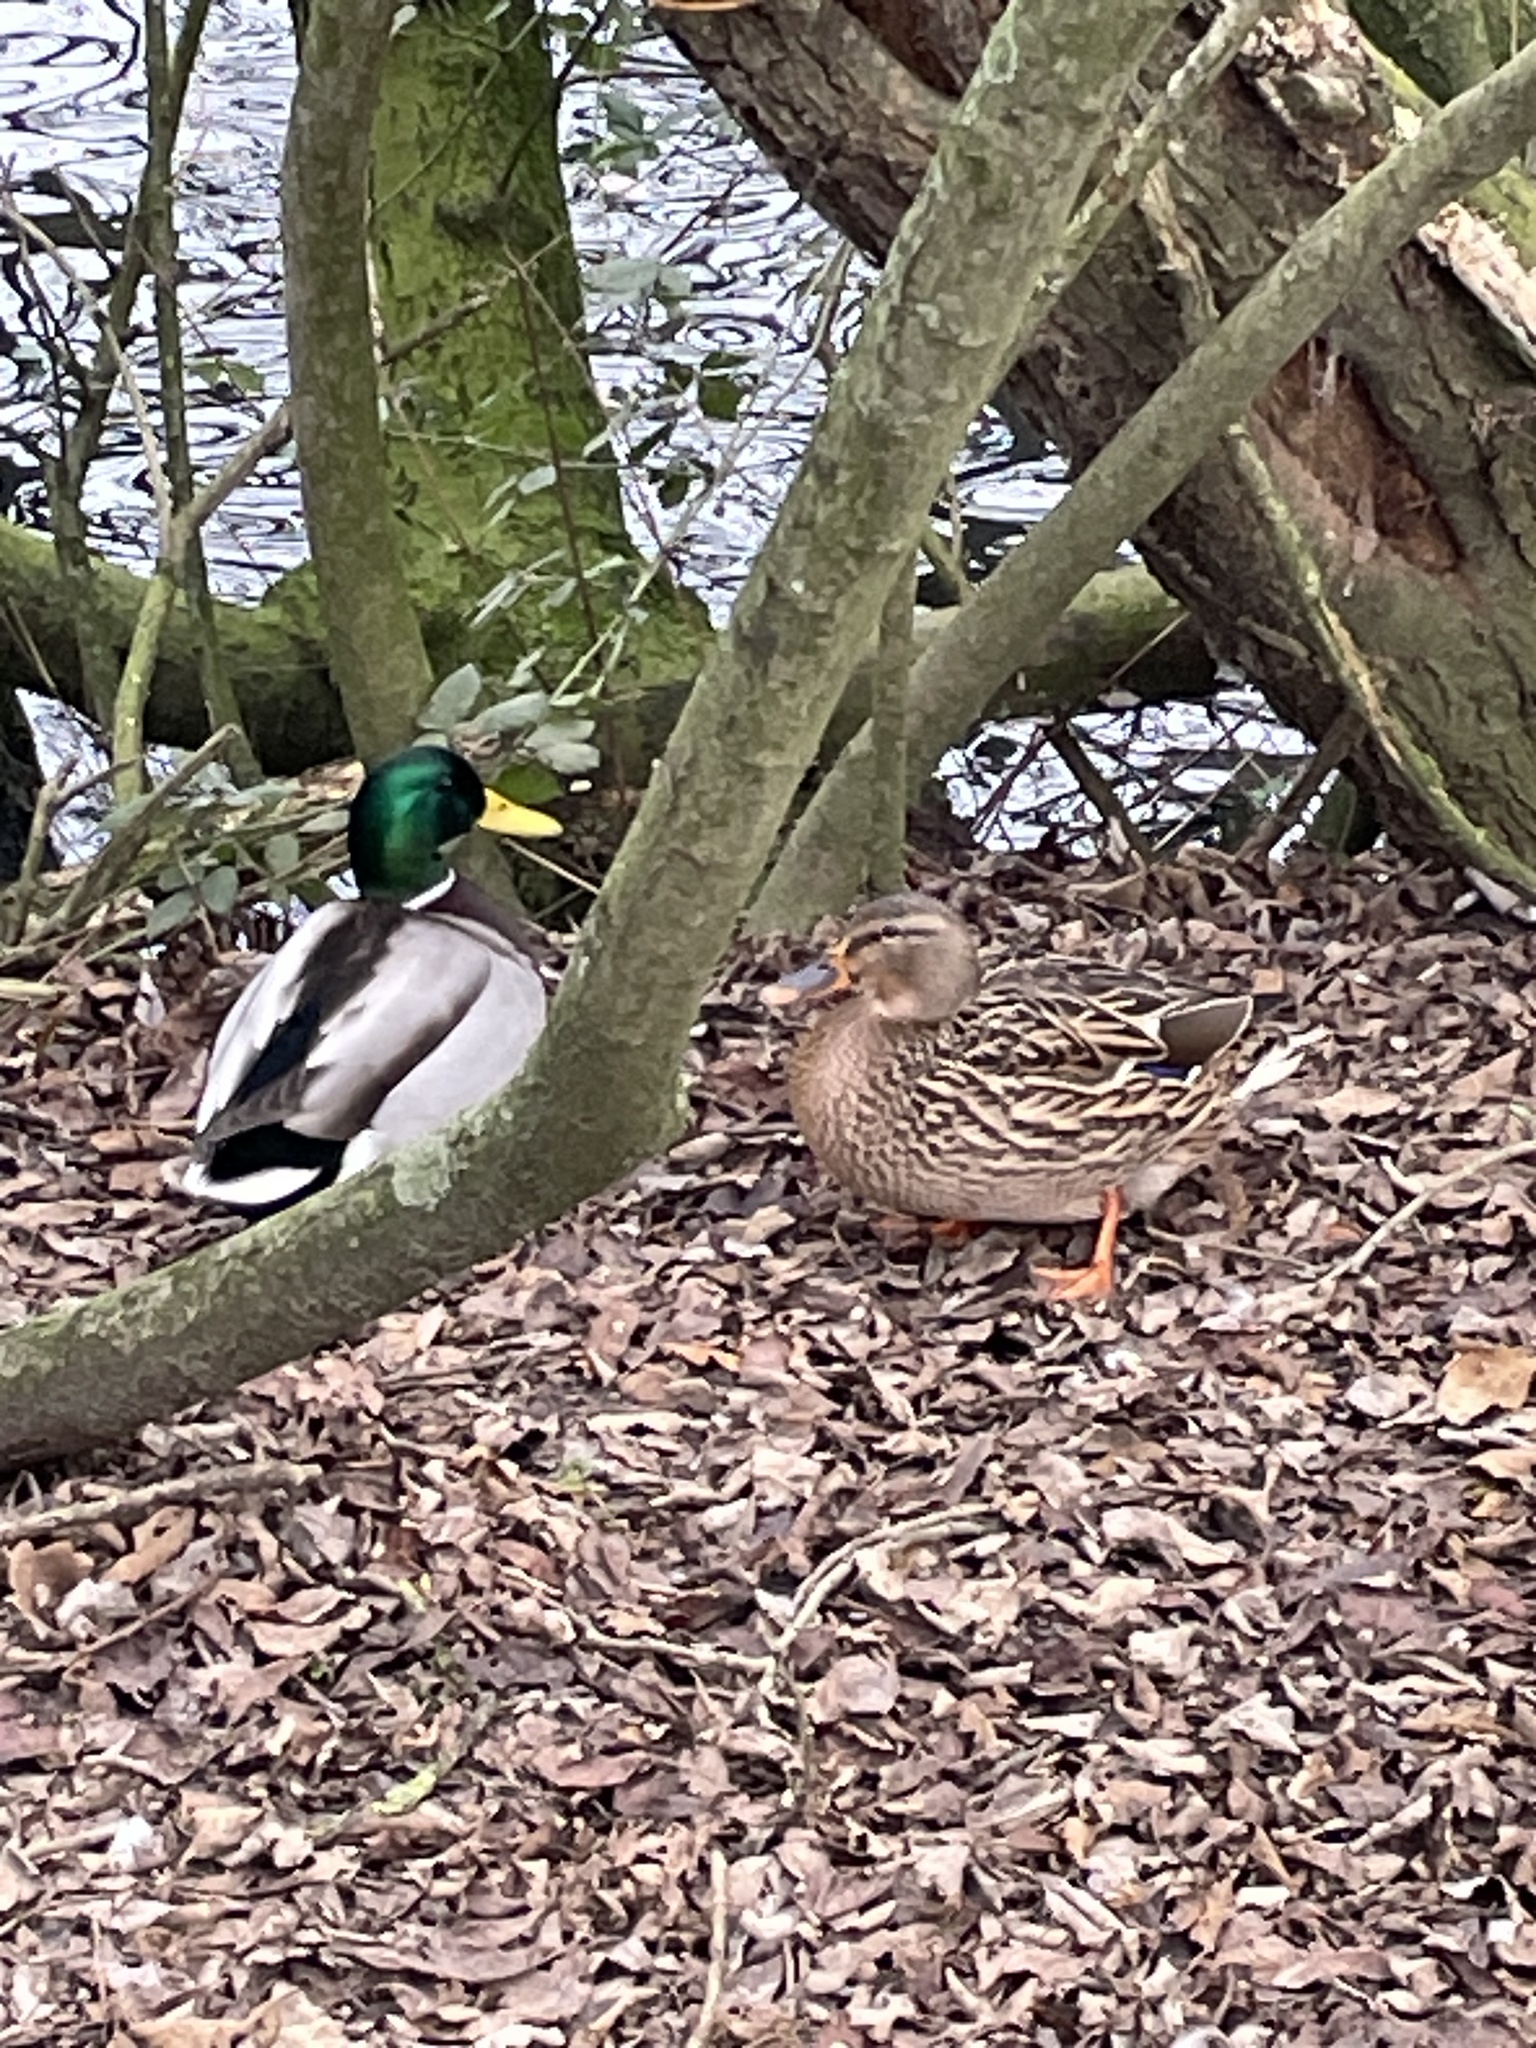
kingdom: Animalia
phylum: Chordata
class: Aves
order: Anseriformes
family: Anatidae
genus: Anas
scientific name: Anas platyrhynchos
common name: Mallard
